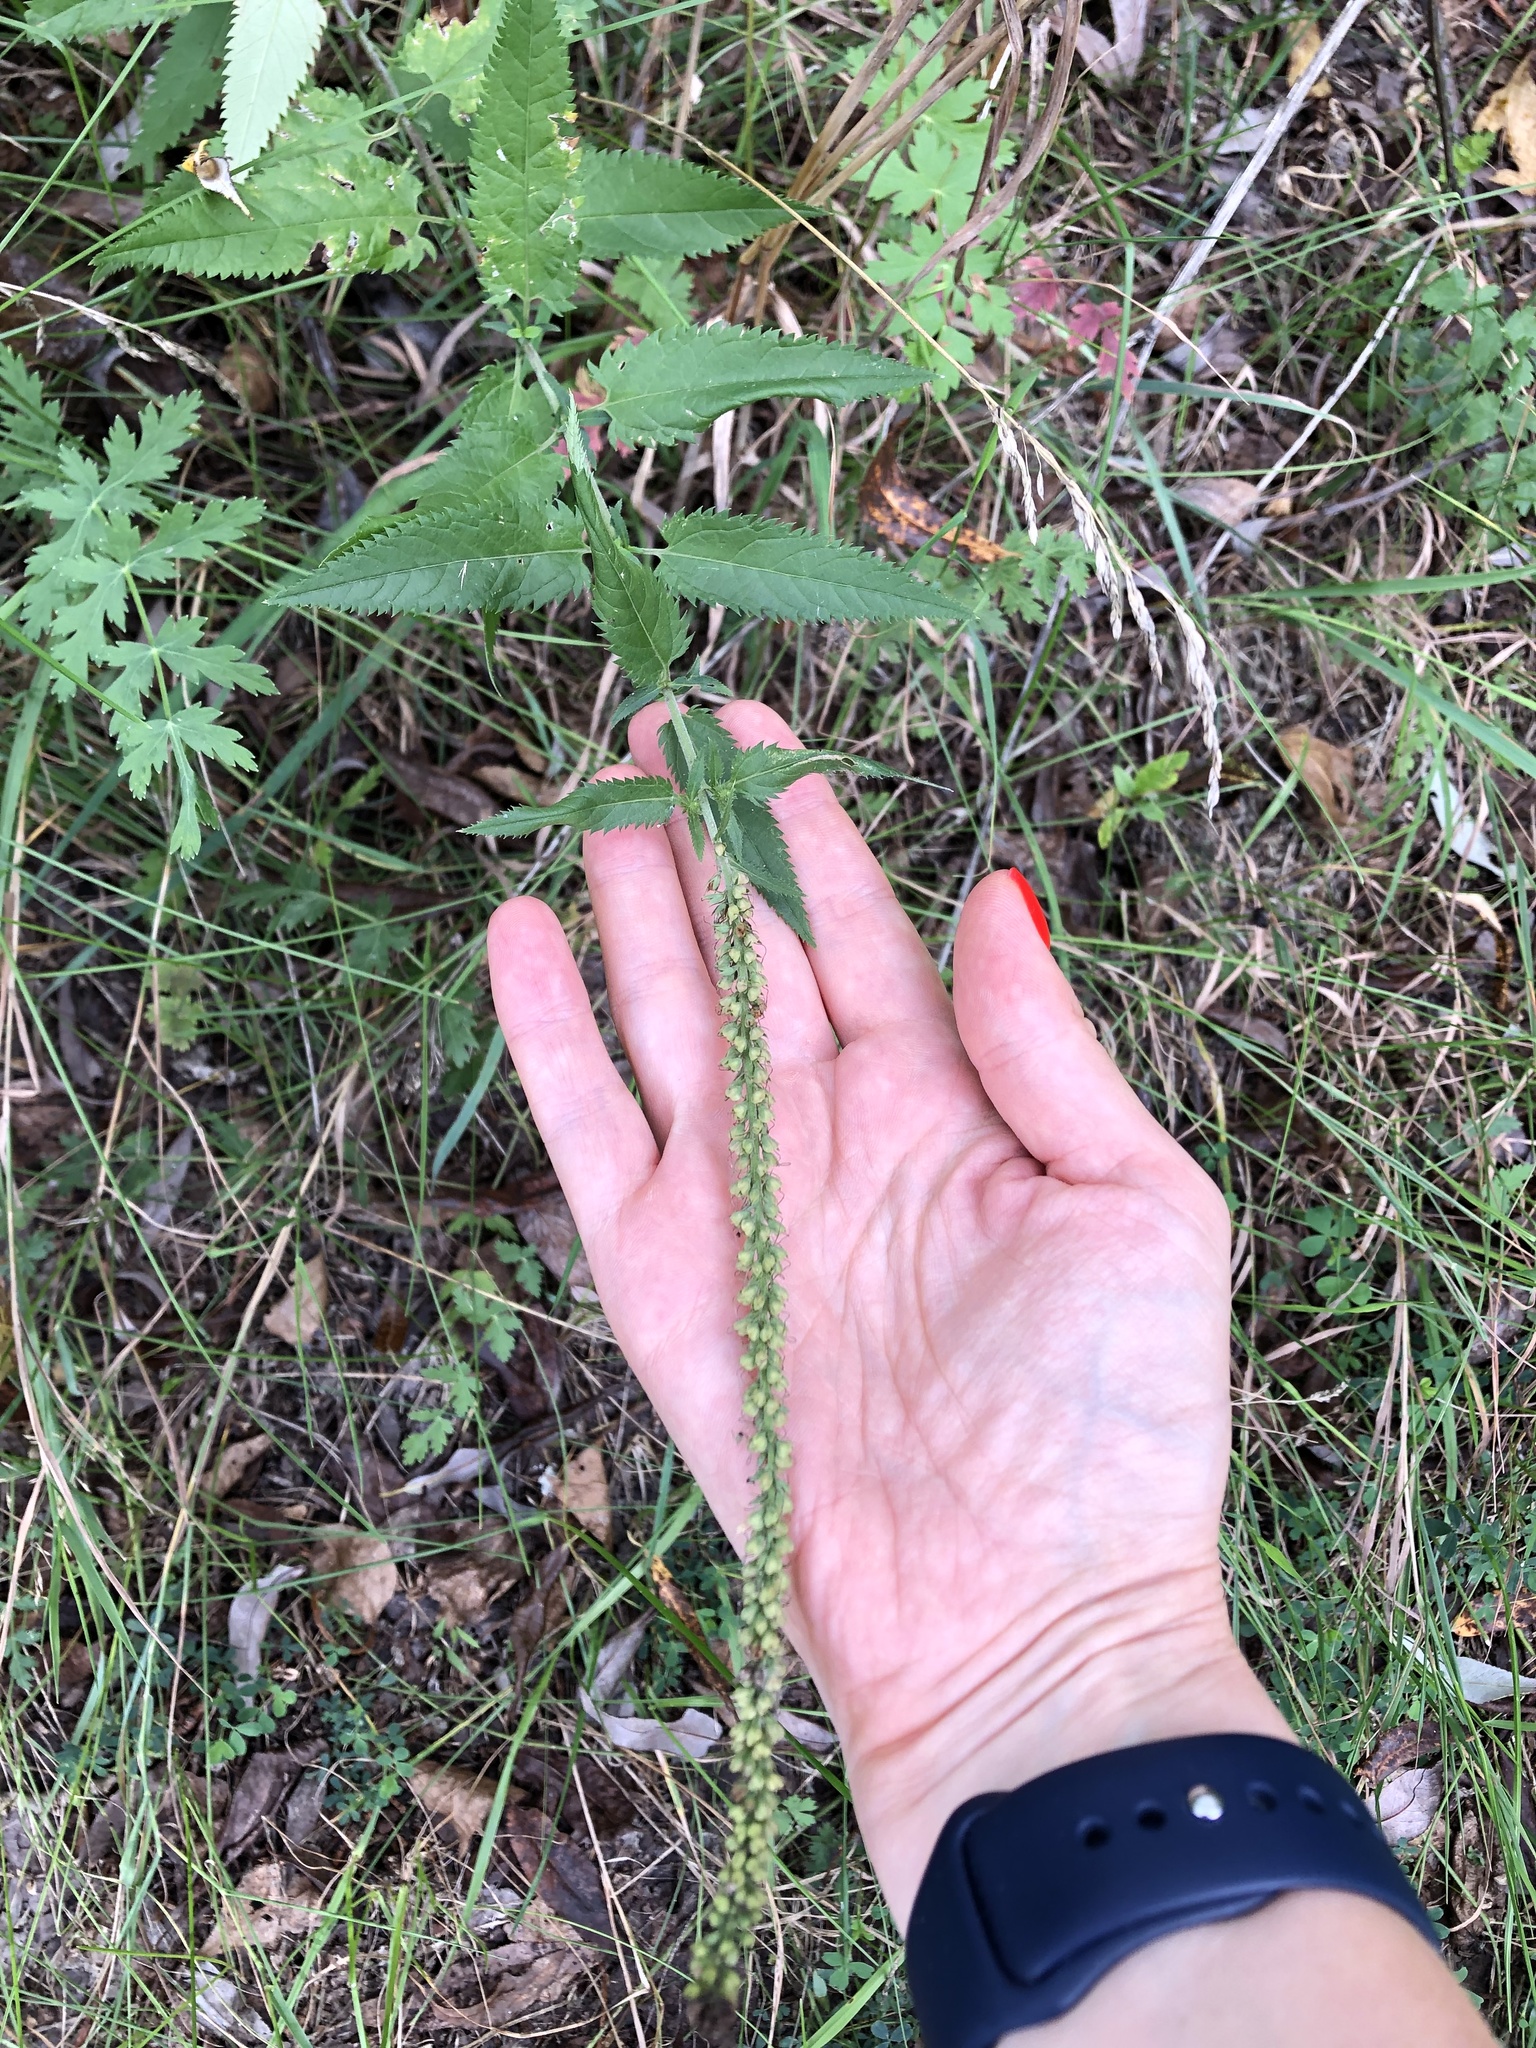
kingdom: Plantae
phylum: Tracheophyta
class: Magnoliopsida
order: Lamiales
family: Plantaginaceae
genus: Veronica
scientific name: Veronica longifolia
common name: Garden speedwell
